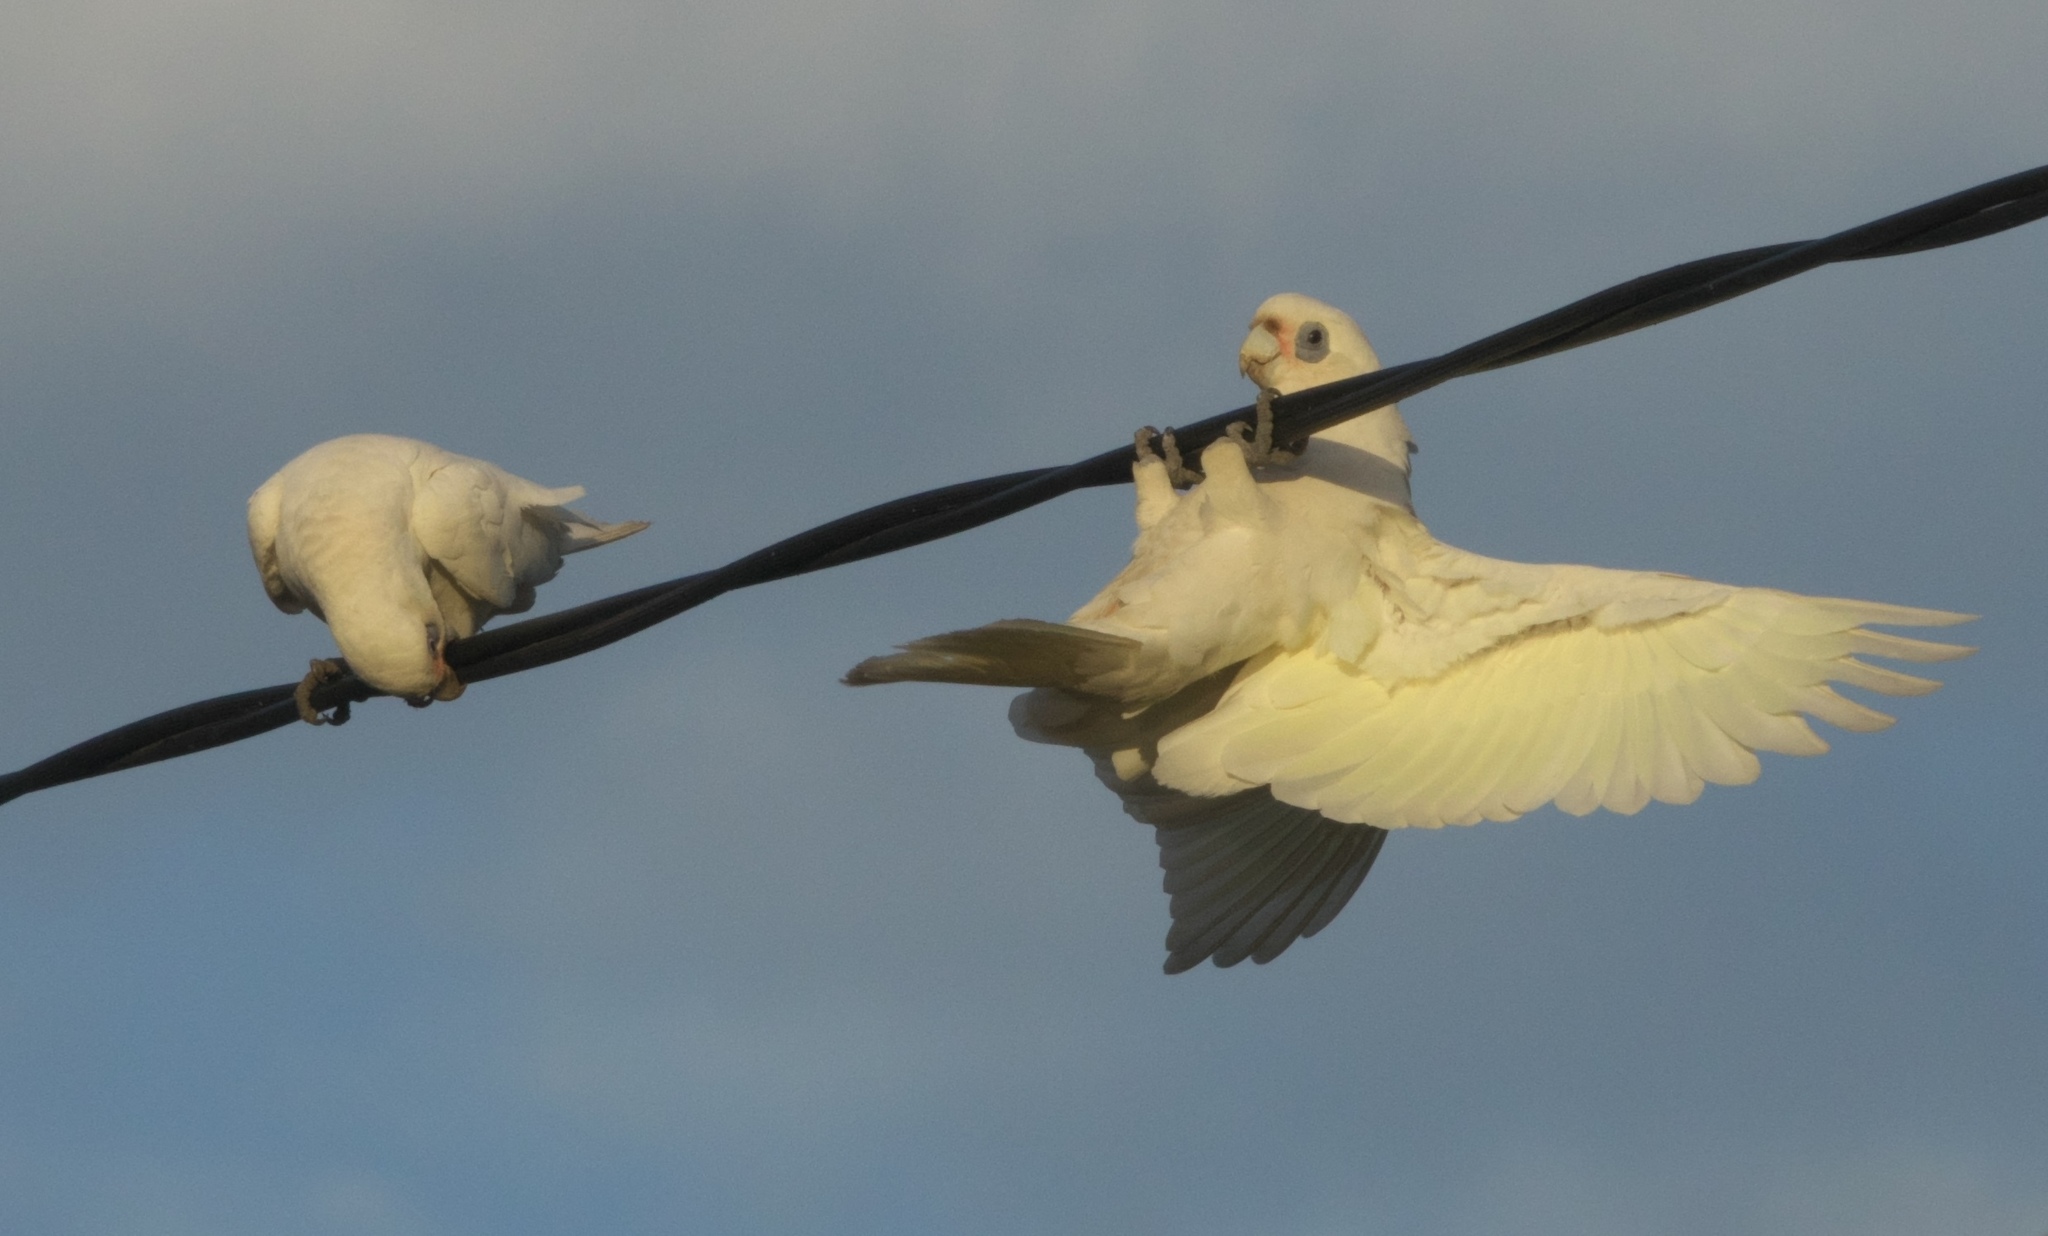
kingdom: Animalia
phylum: Chordata
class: Aves
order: Psittaciformes
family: Psittacidae
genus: Cacatua
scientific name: Cacatua sanguinea
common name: Little corella
